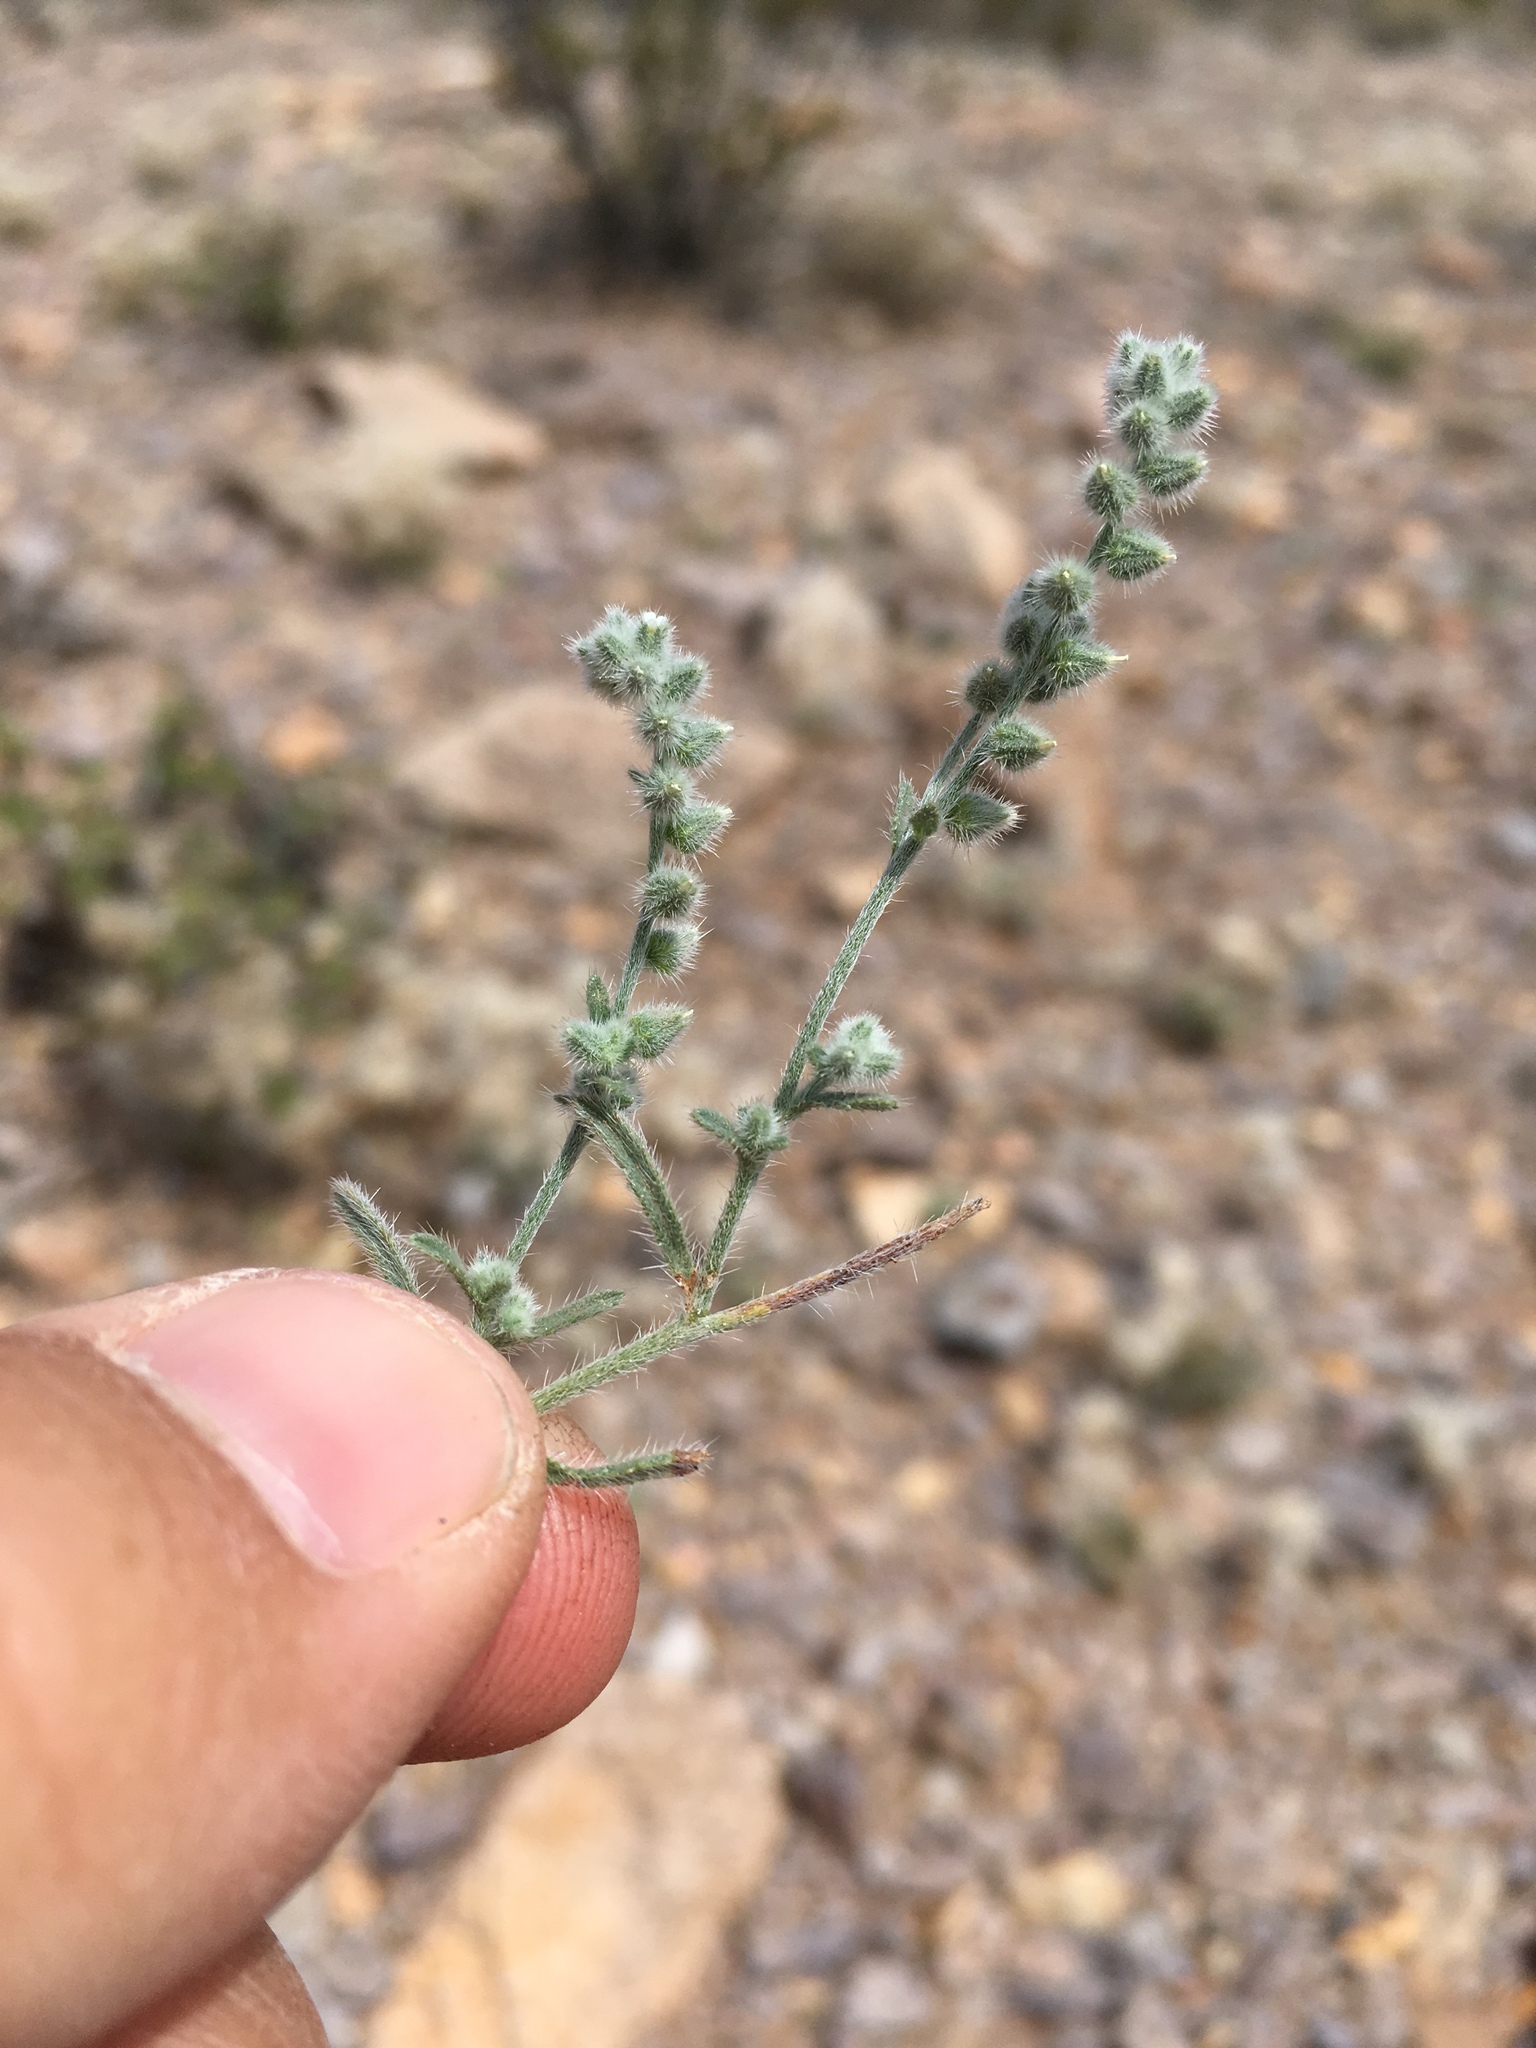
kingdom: Plantae
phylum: Tracheophyta
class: Magnoliopsida
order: Boraginales
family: Boraginaceae
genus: Johnstonella
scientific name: Johnstonella pusilla
